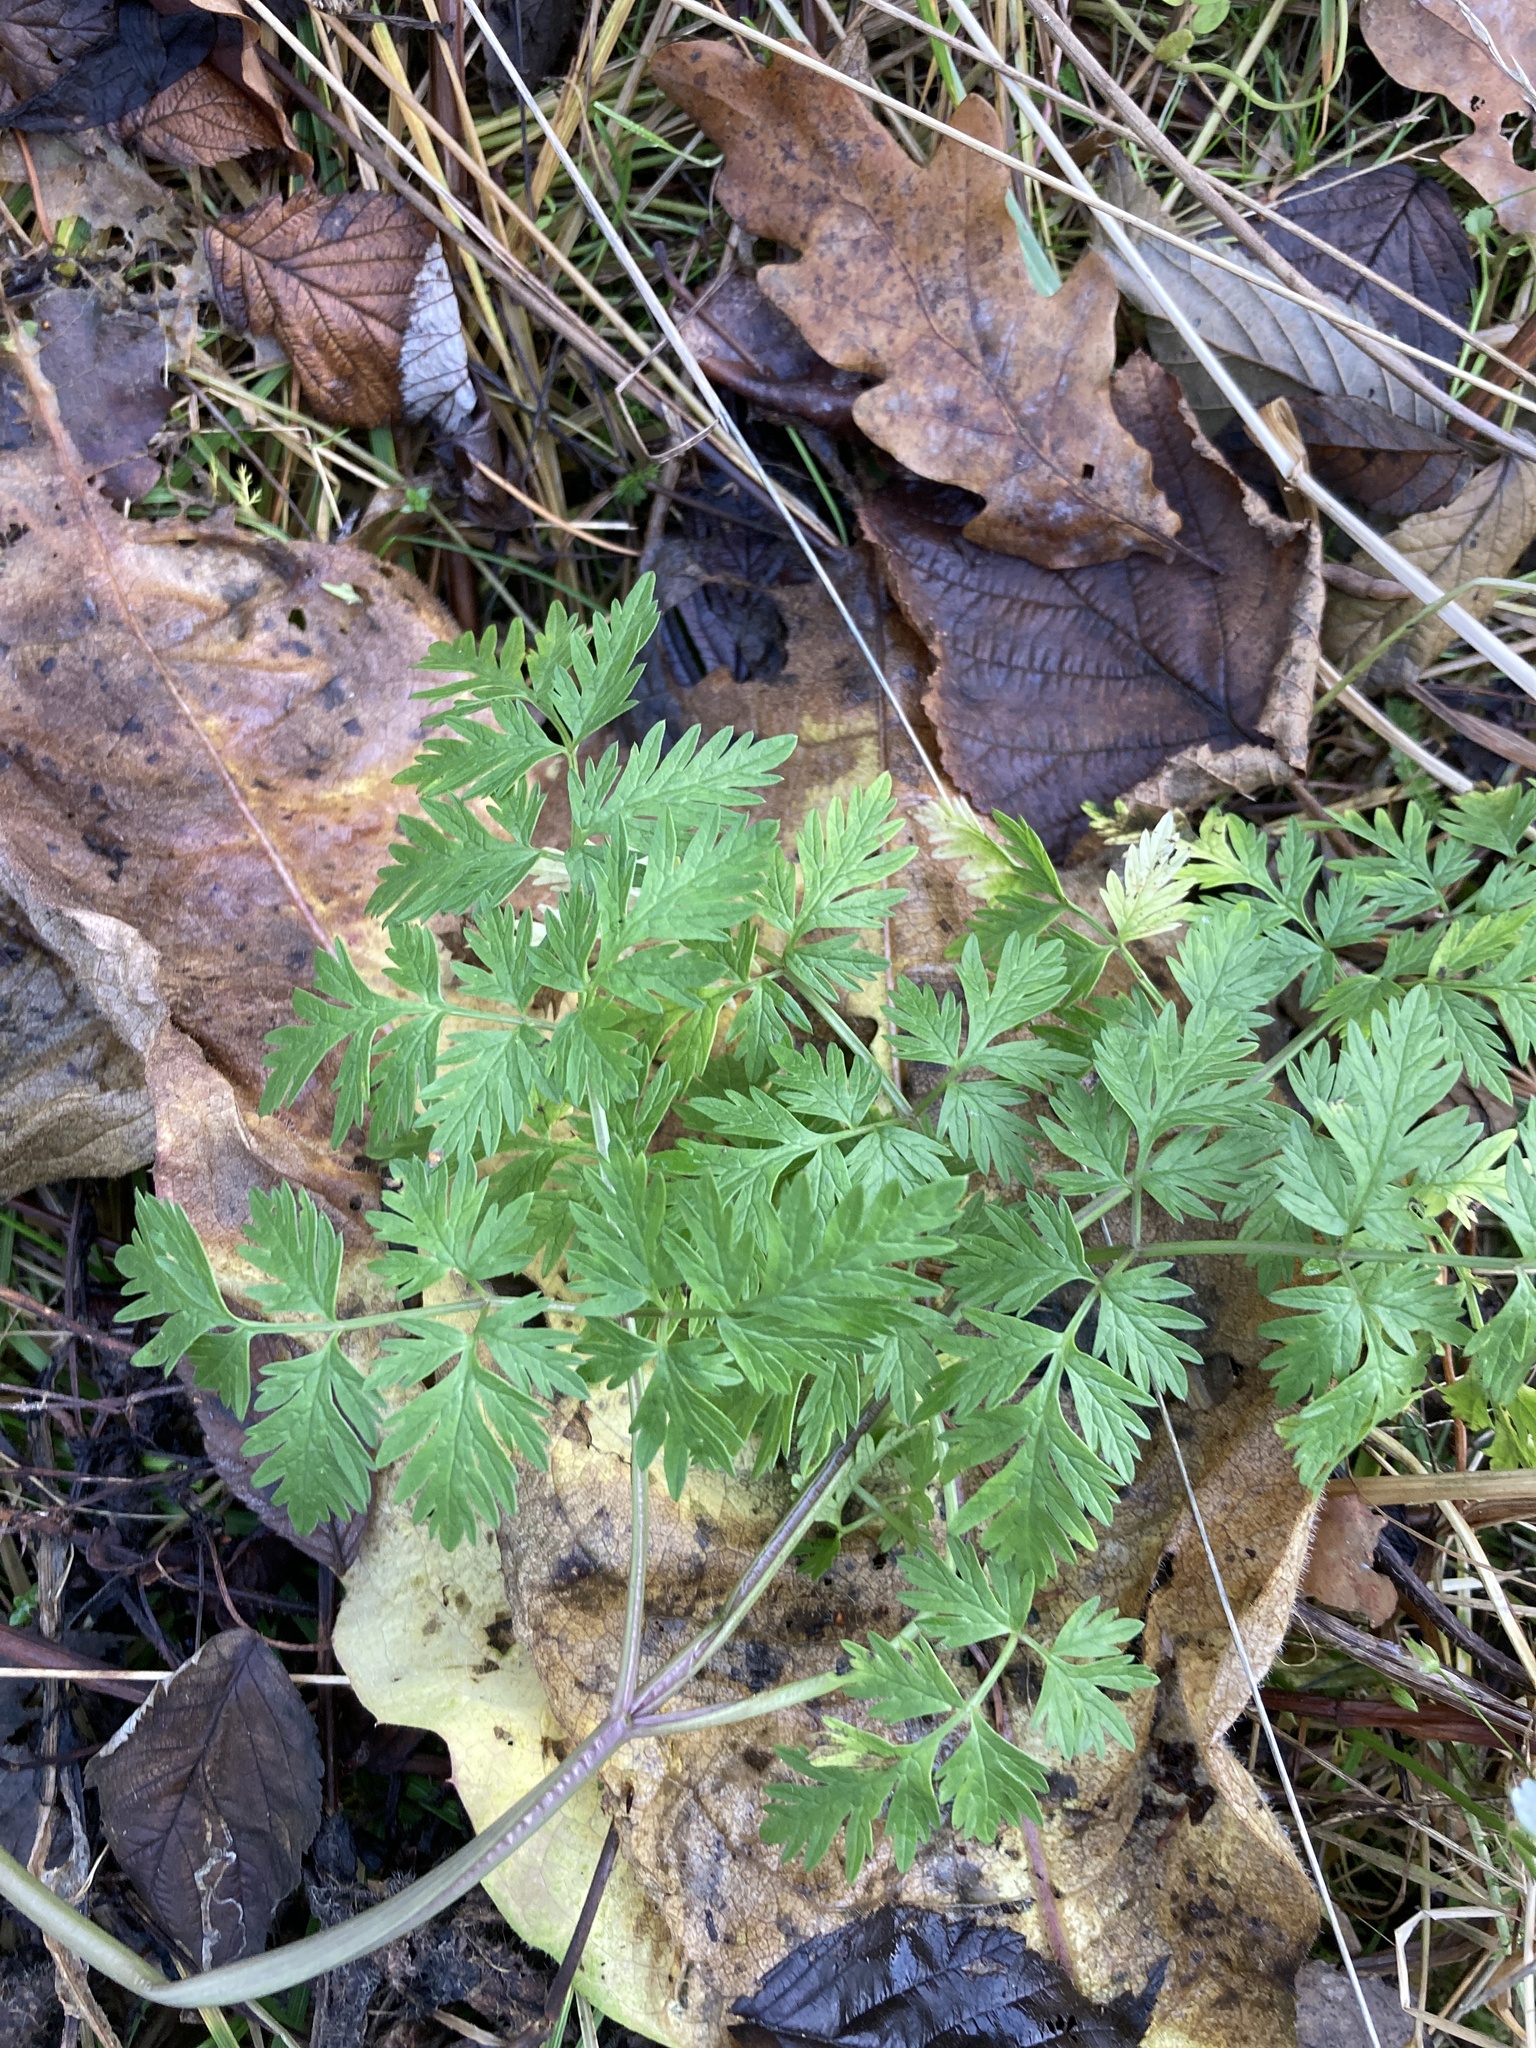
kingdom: Plantae
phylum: Tracheophyta
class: Magnoliopsida
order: Apiales
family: Apiaceae
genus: Anthriscus
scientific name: Anthriscus sylvestris
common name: Cow parsley
